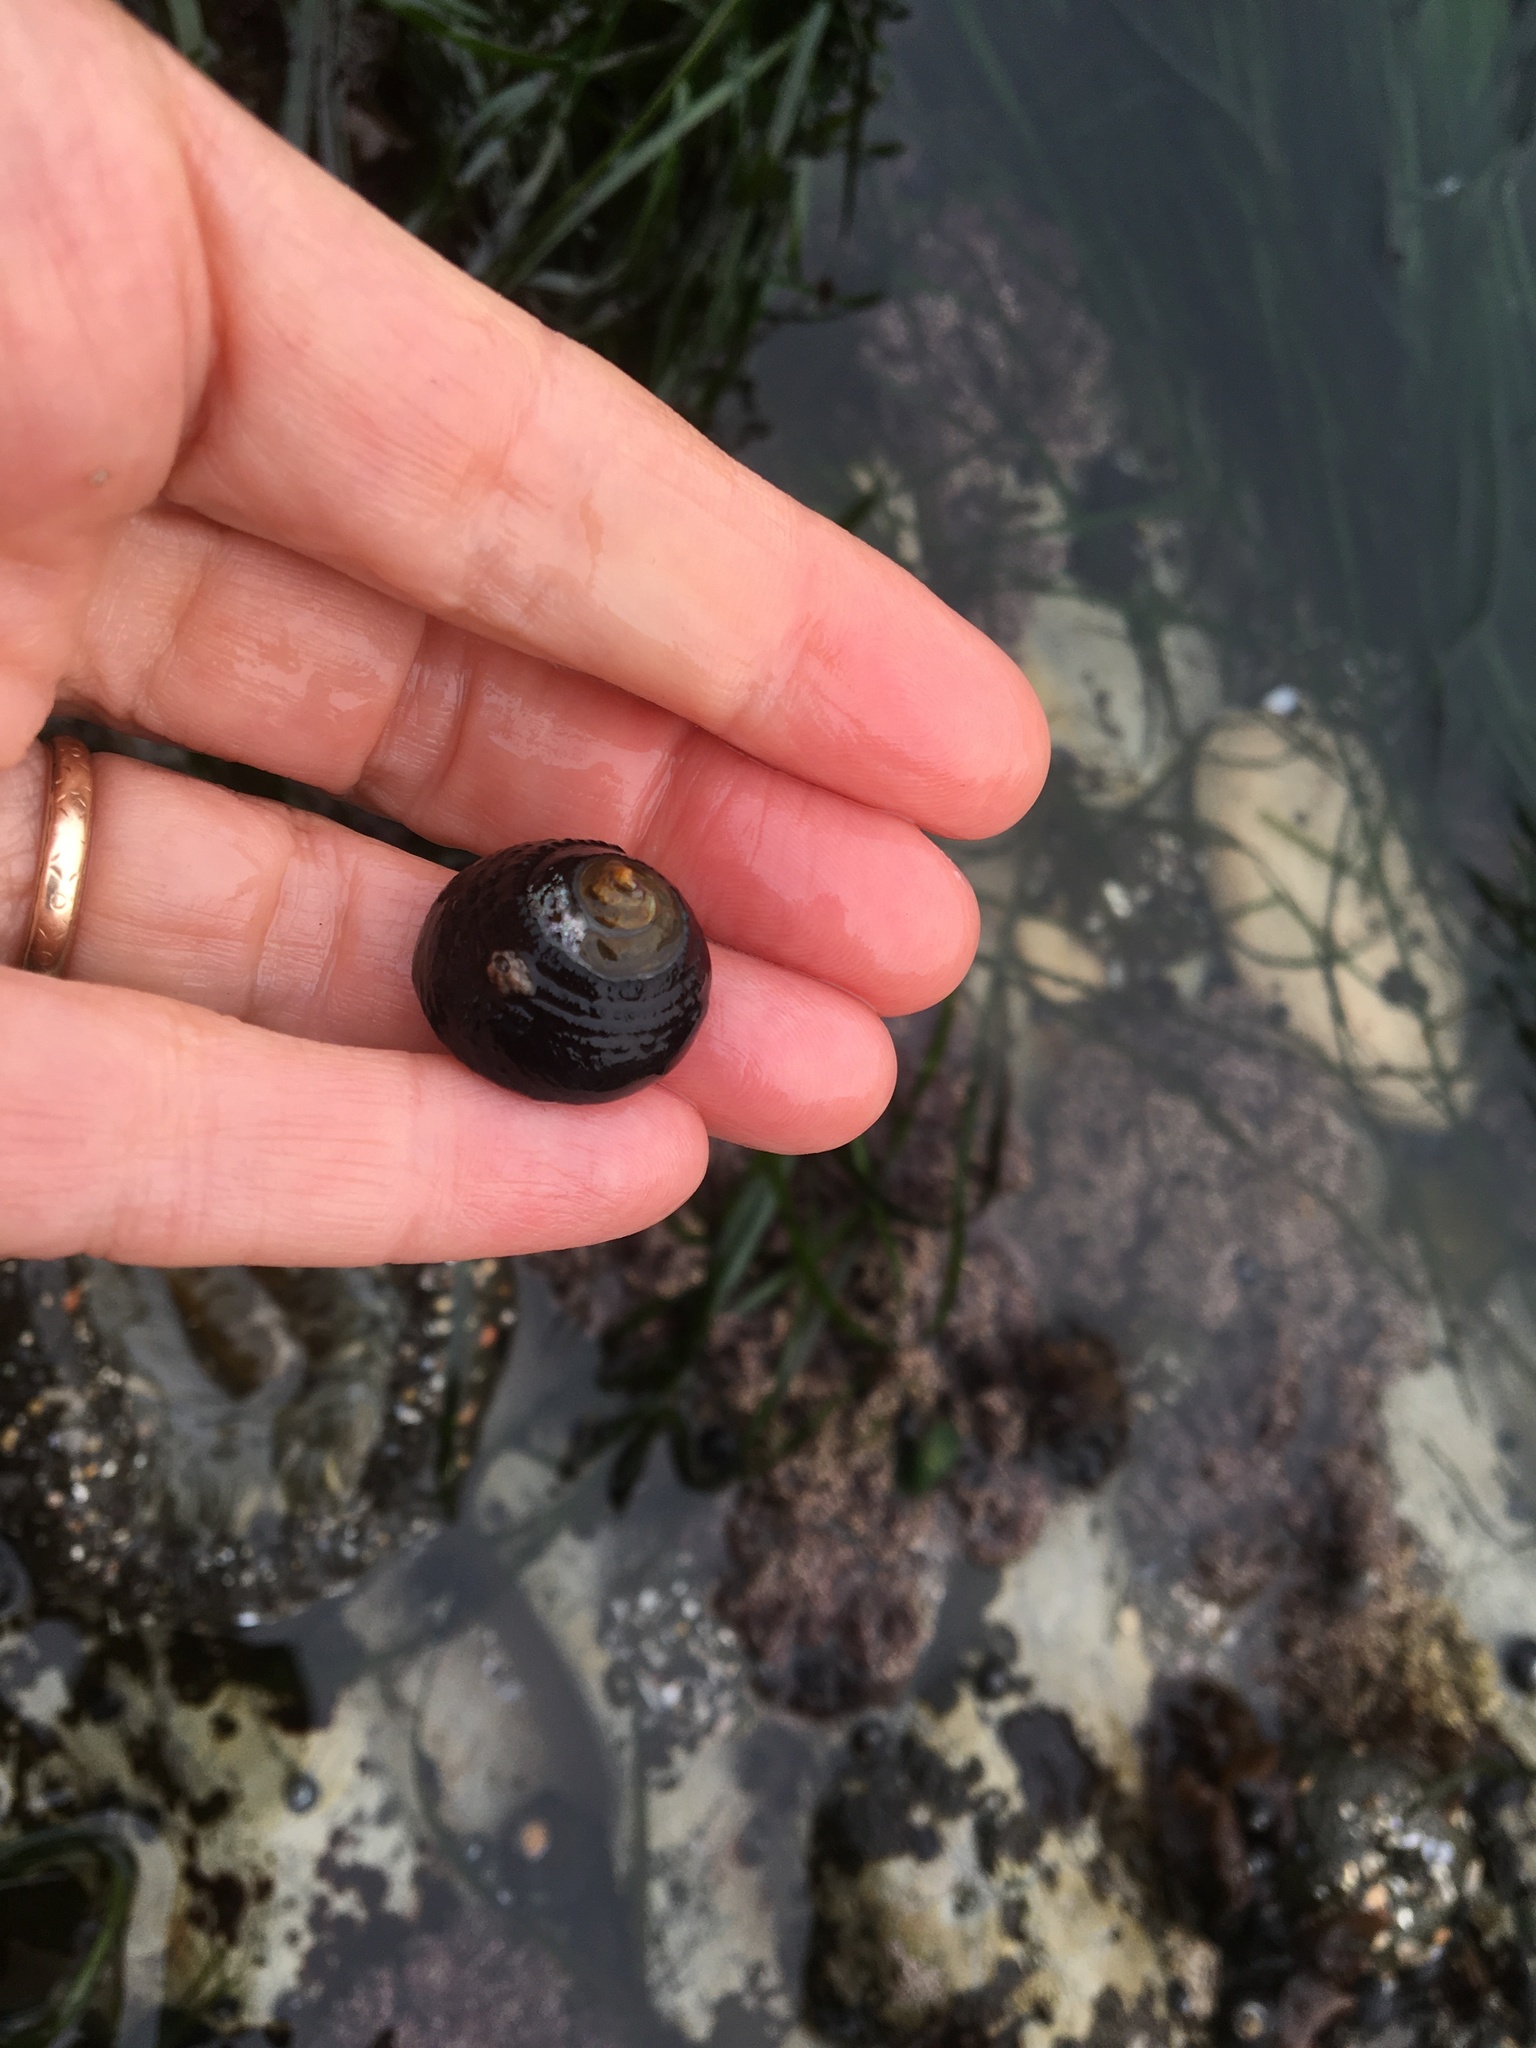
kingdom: Animalia
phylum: Mollusca
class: Gastropoda
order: Trochida
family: Tegulidae
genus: Tegula
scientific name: Tegula funebralis
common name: Black tegula
